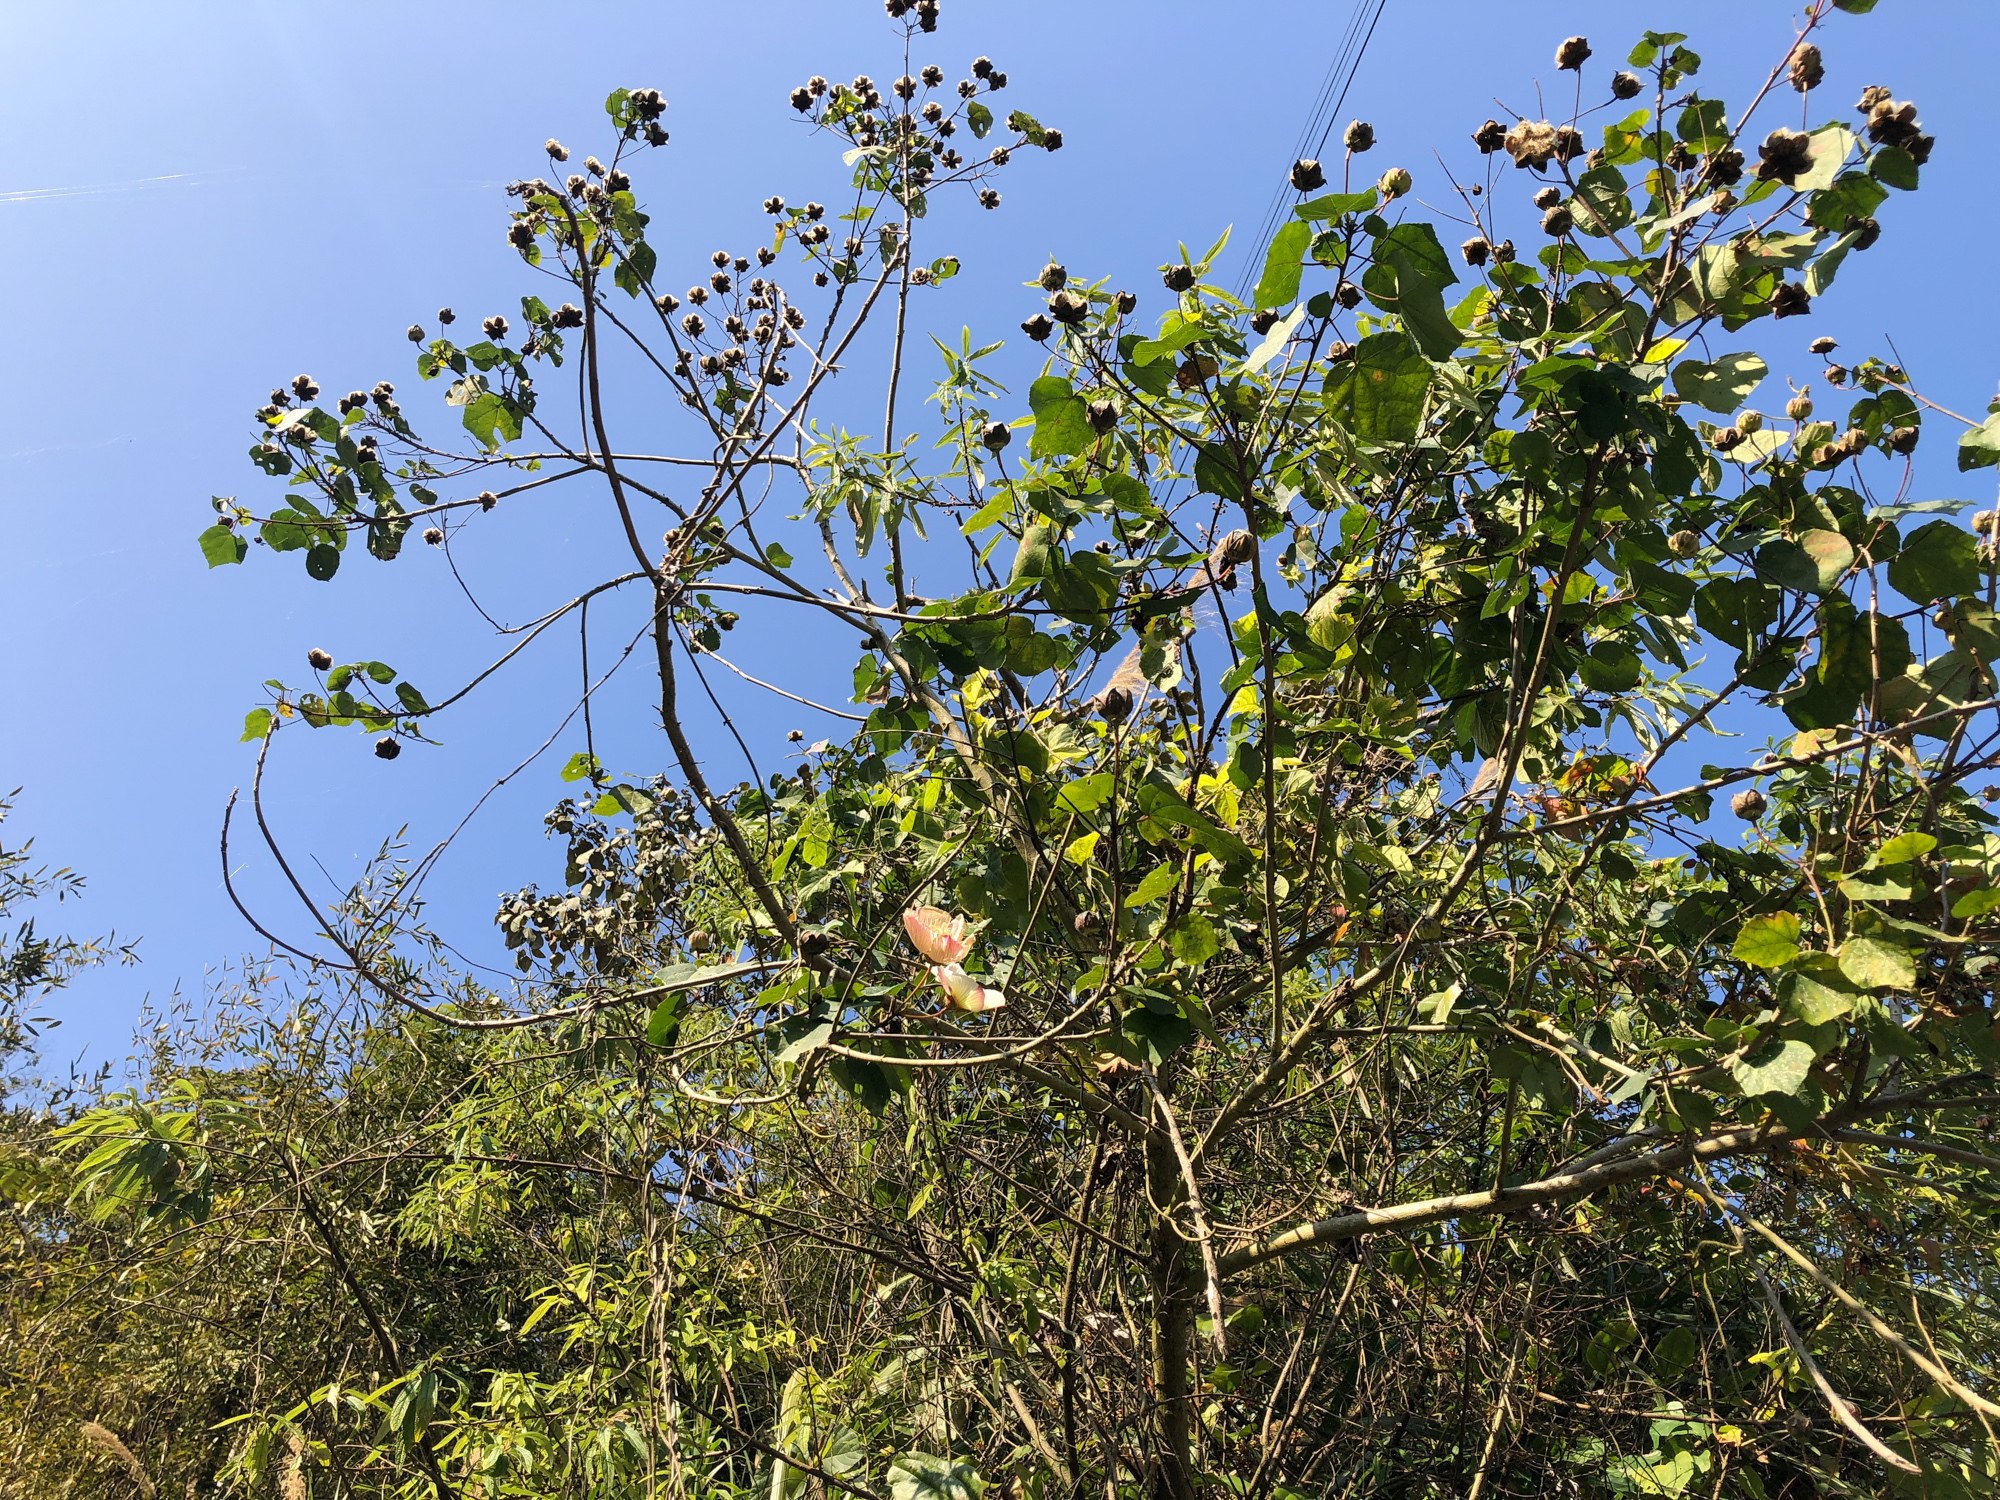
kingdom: Plantae
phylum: Tracheophyta
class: Magnoliopsida
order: Malvales
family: Malvaceae
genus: Hibiscus
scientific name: Hibiscus taiwanensis
